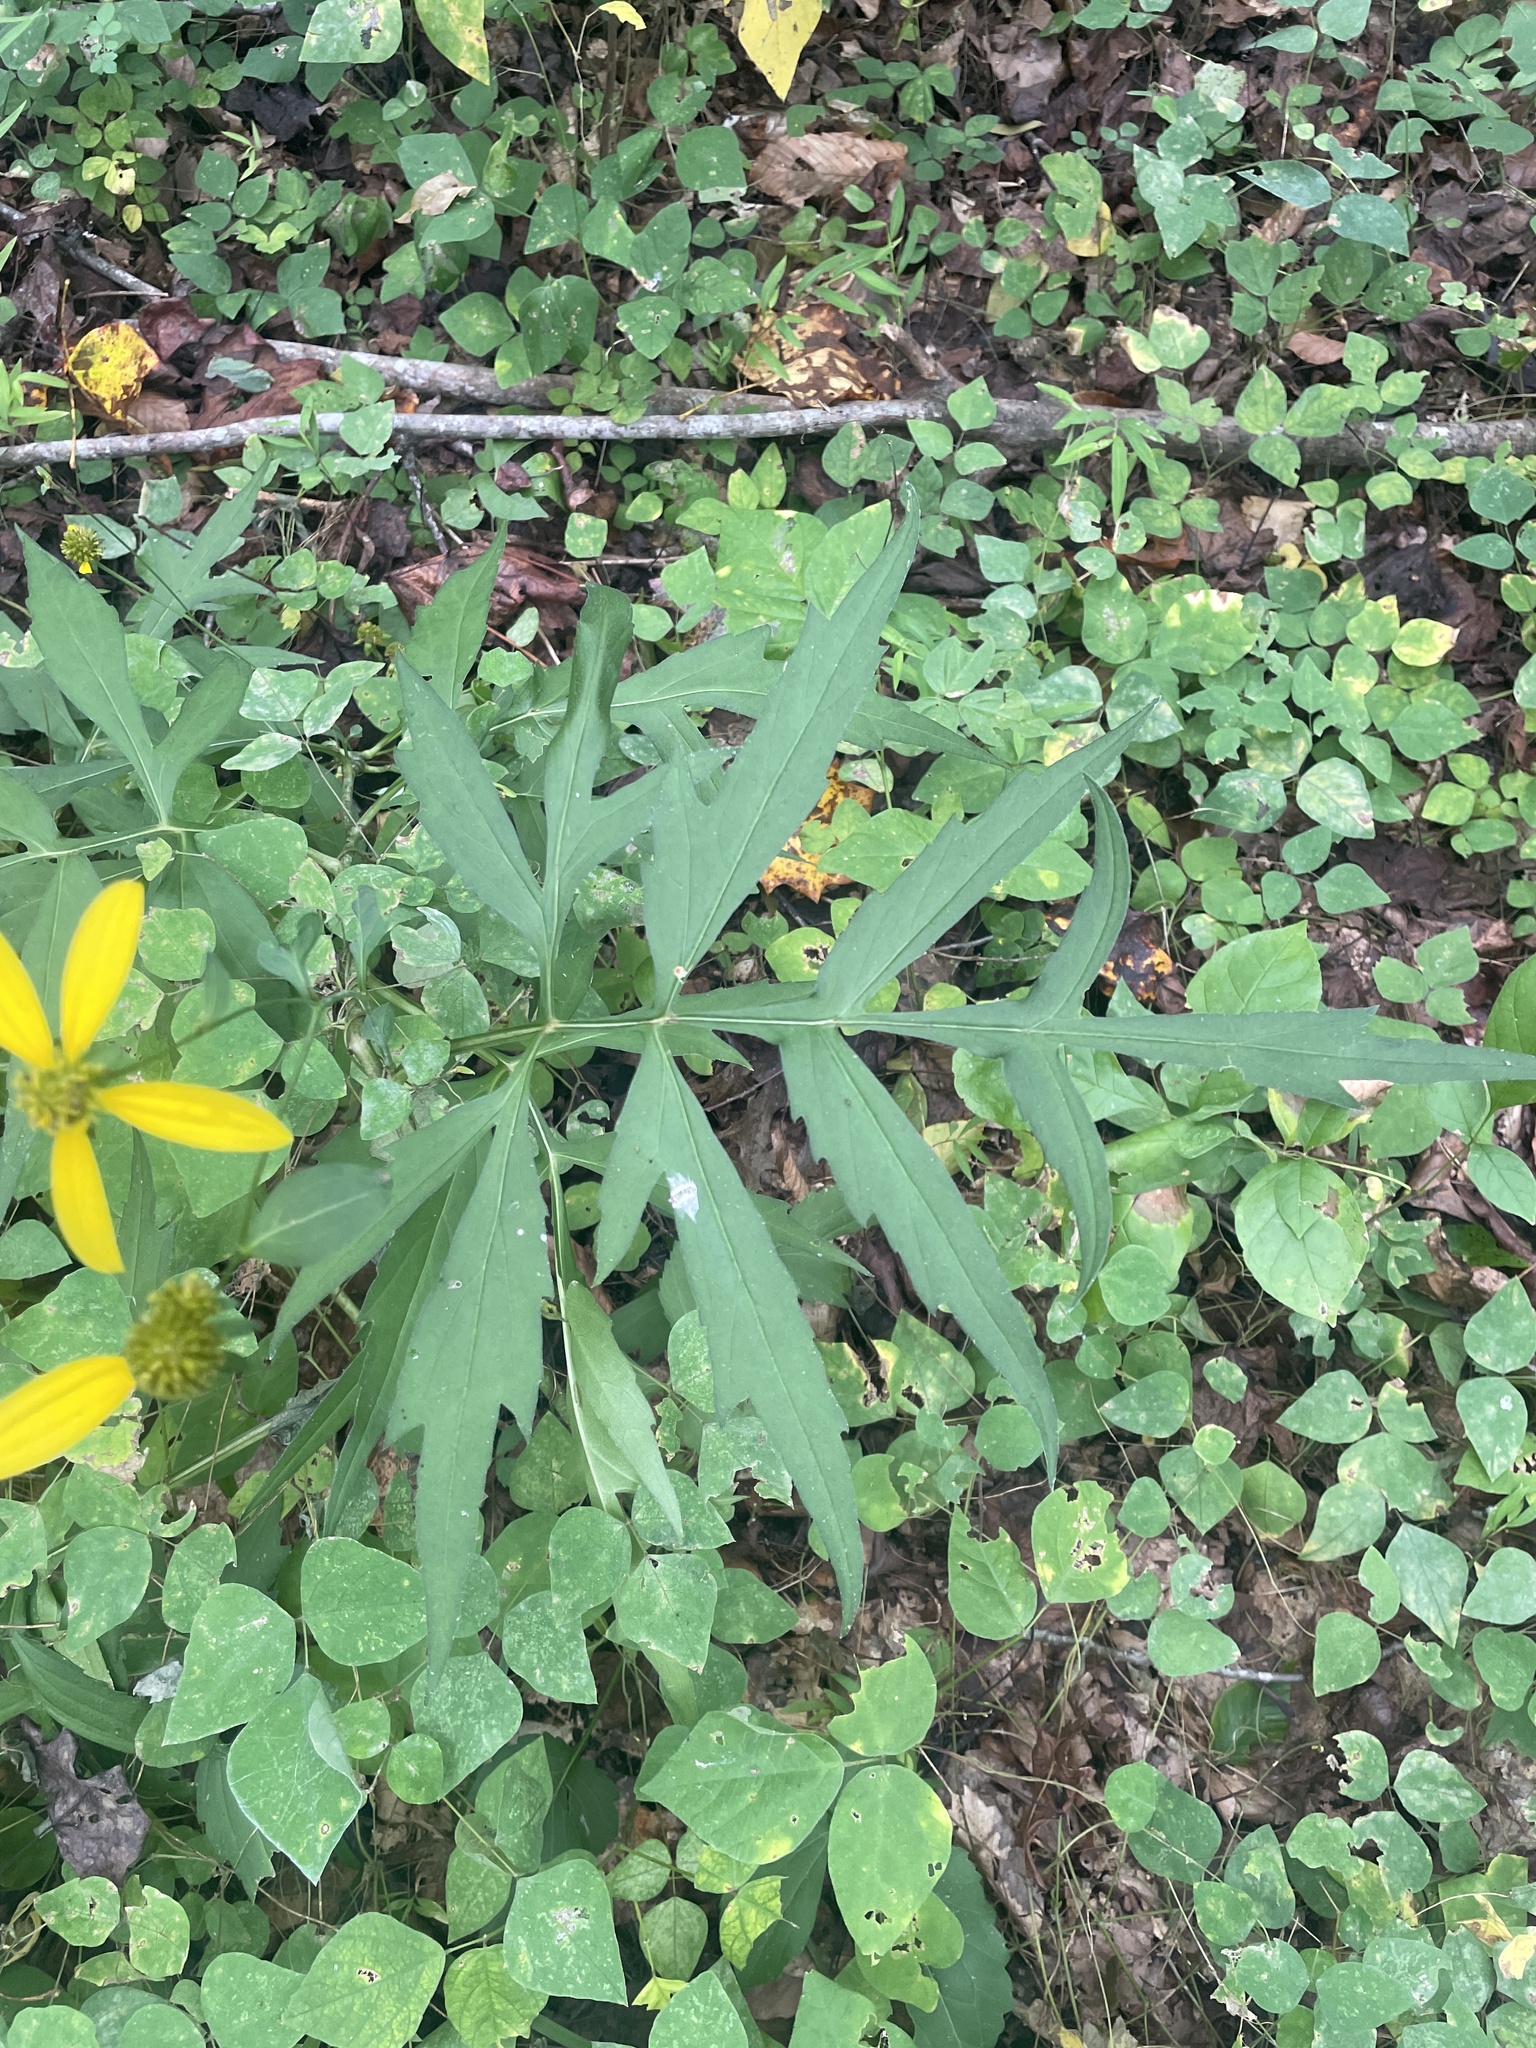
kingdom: Plantae
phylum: Tracheophyta
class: Magnoliopsida
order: Asterales
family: Asteraceae
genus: Rudbeckia
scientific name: Rudbeckia laciniata
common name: Coneflower
